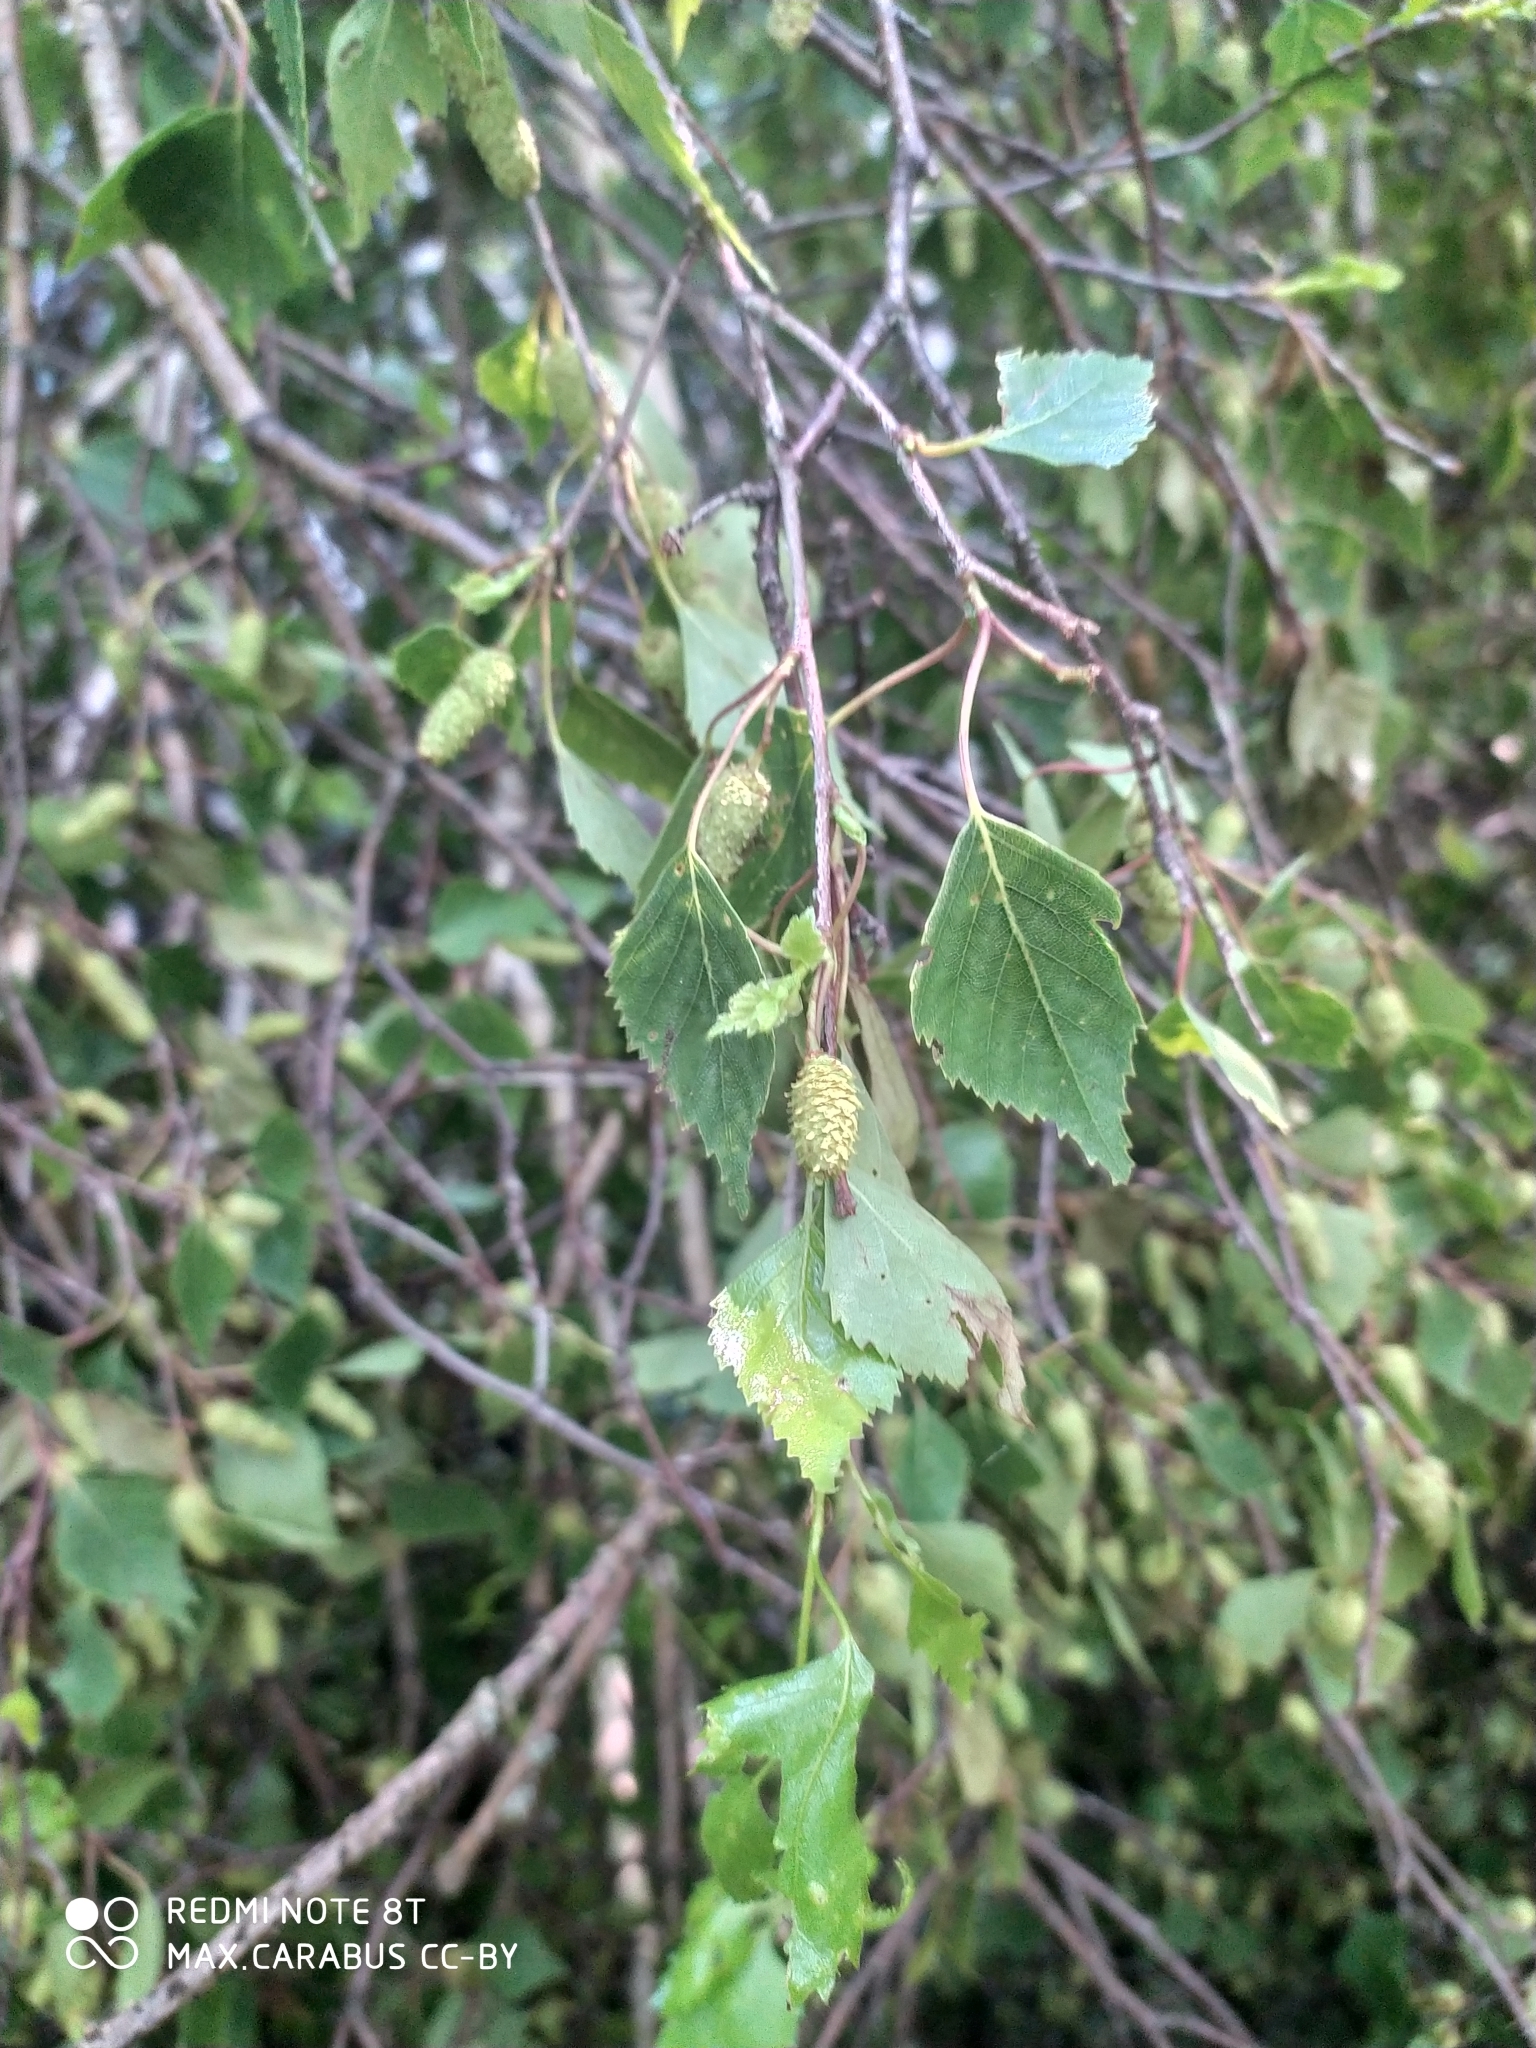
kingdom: Plantae
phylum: Tracheophyta
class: Magnoliopsida
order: Fagales
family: Betulaceae
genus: Betula
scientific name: Betula pendula
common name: Silver birch
